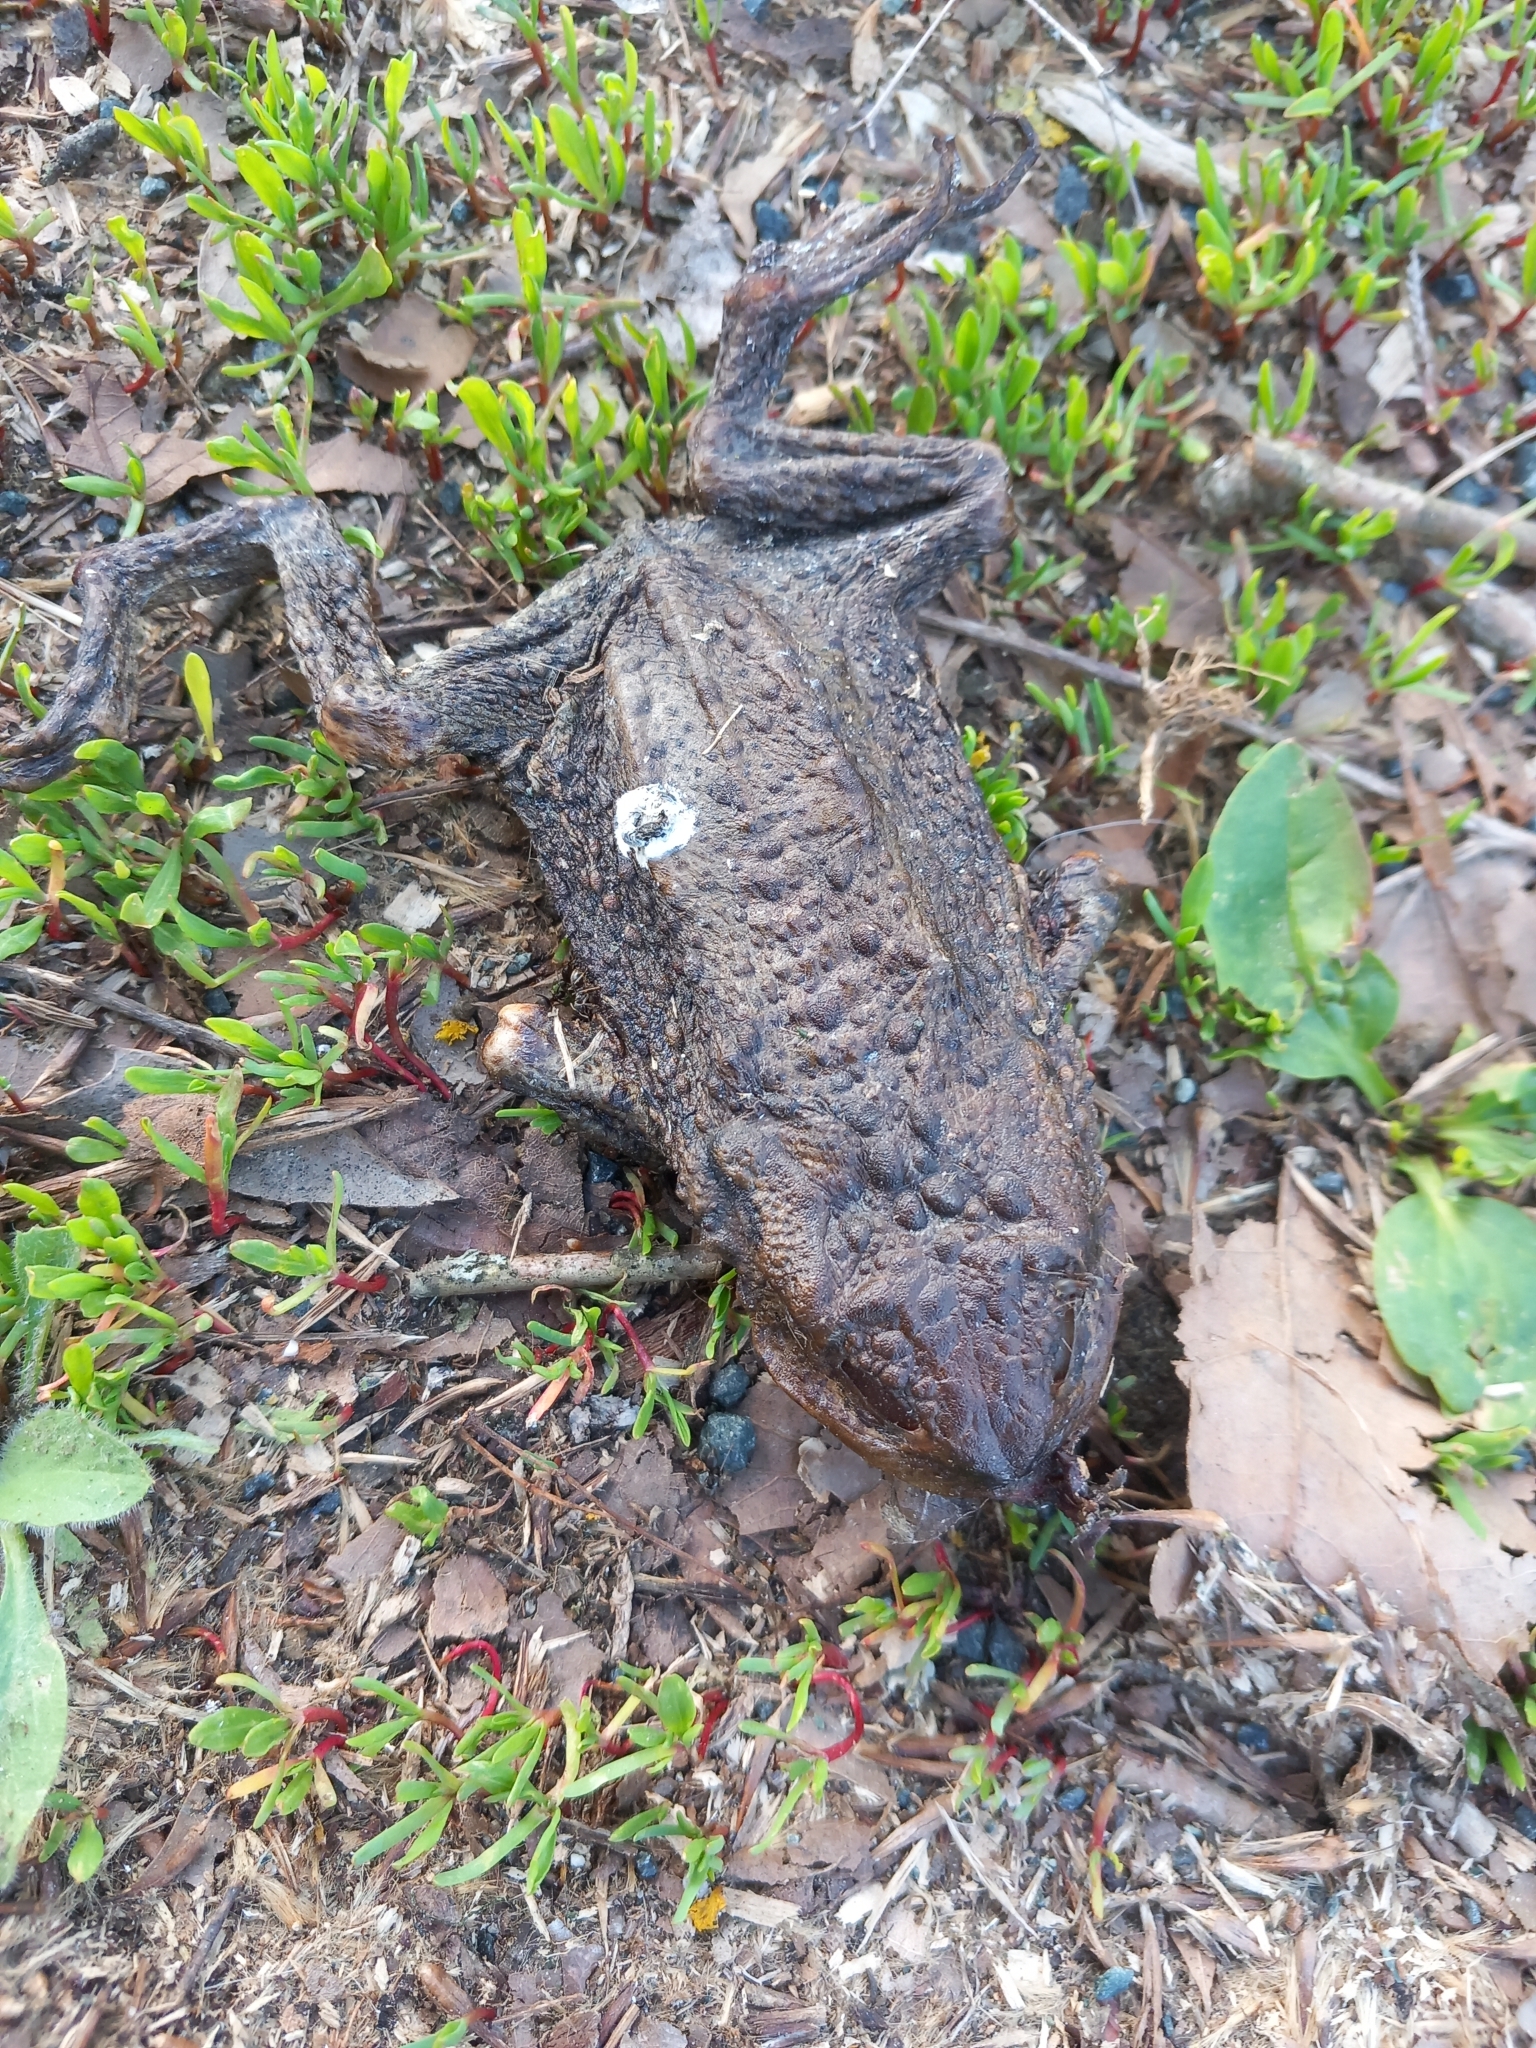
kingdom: Animalia
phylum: Chordata
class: Amphibia
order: Anura
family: Bufonidae
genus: Bufo
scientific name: Bufo bufo
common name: Common toad
